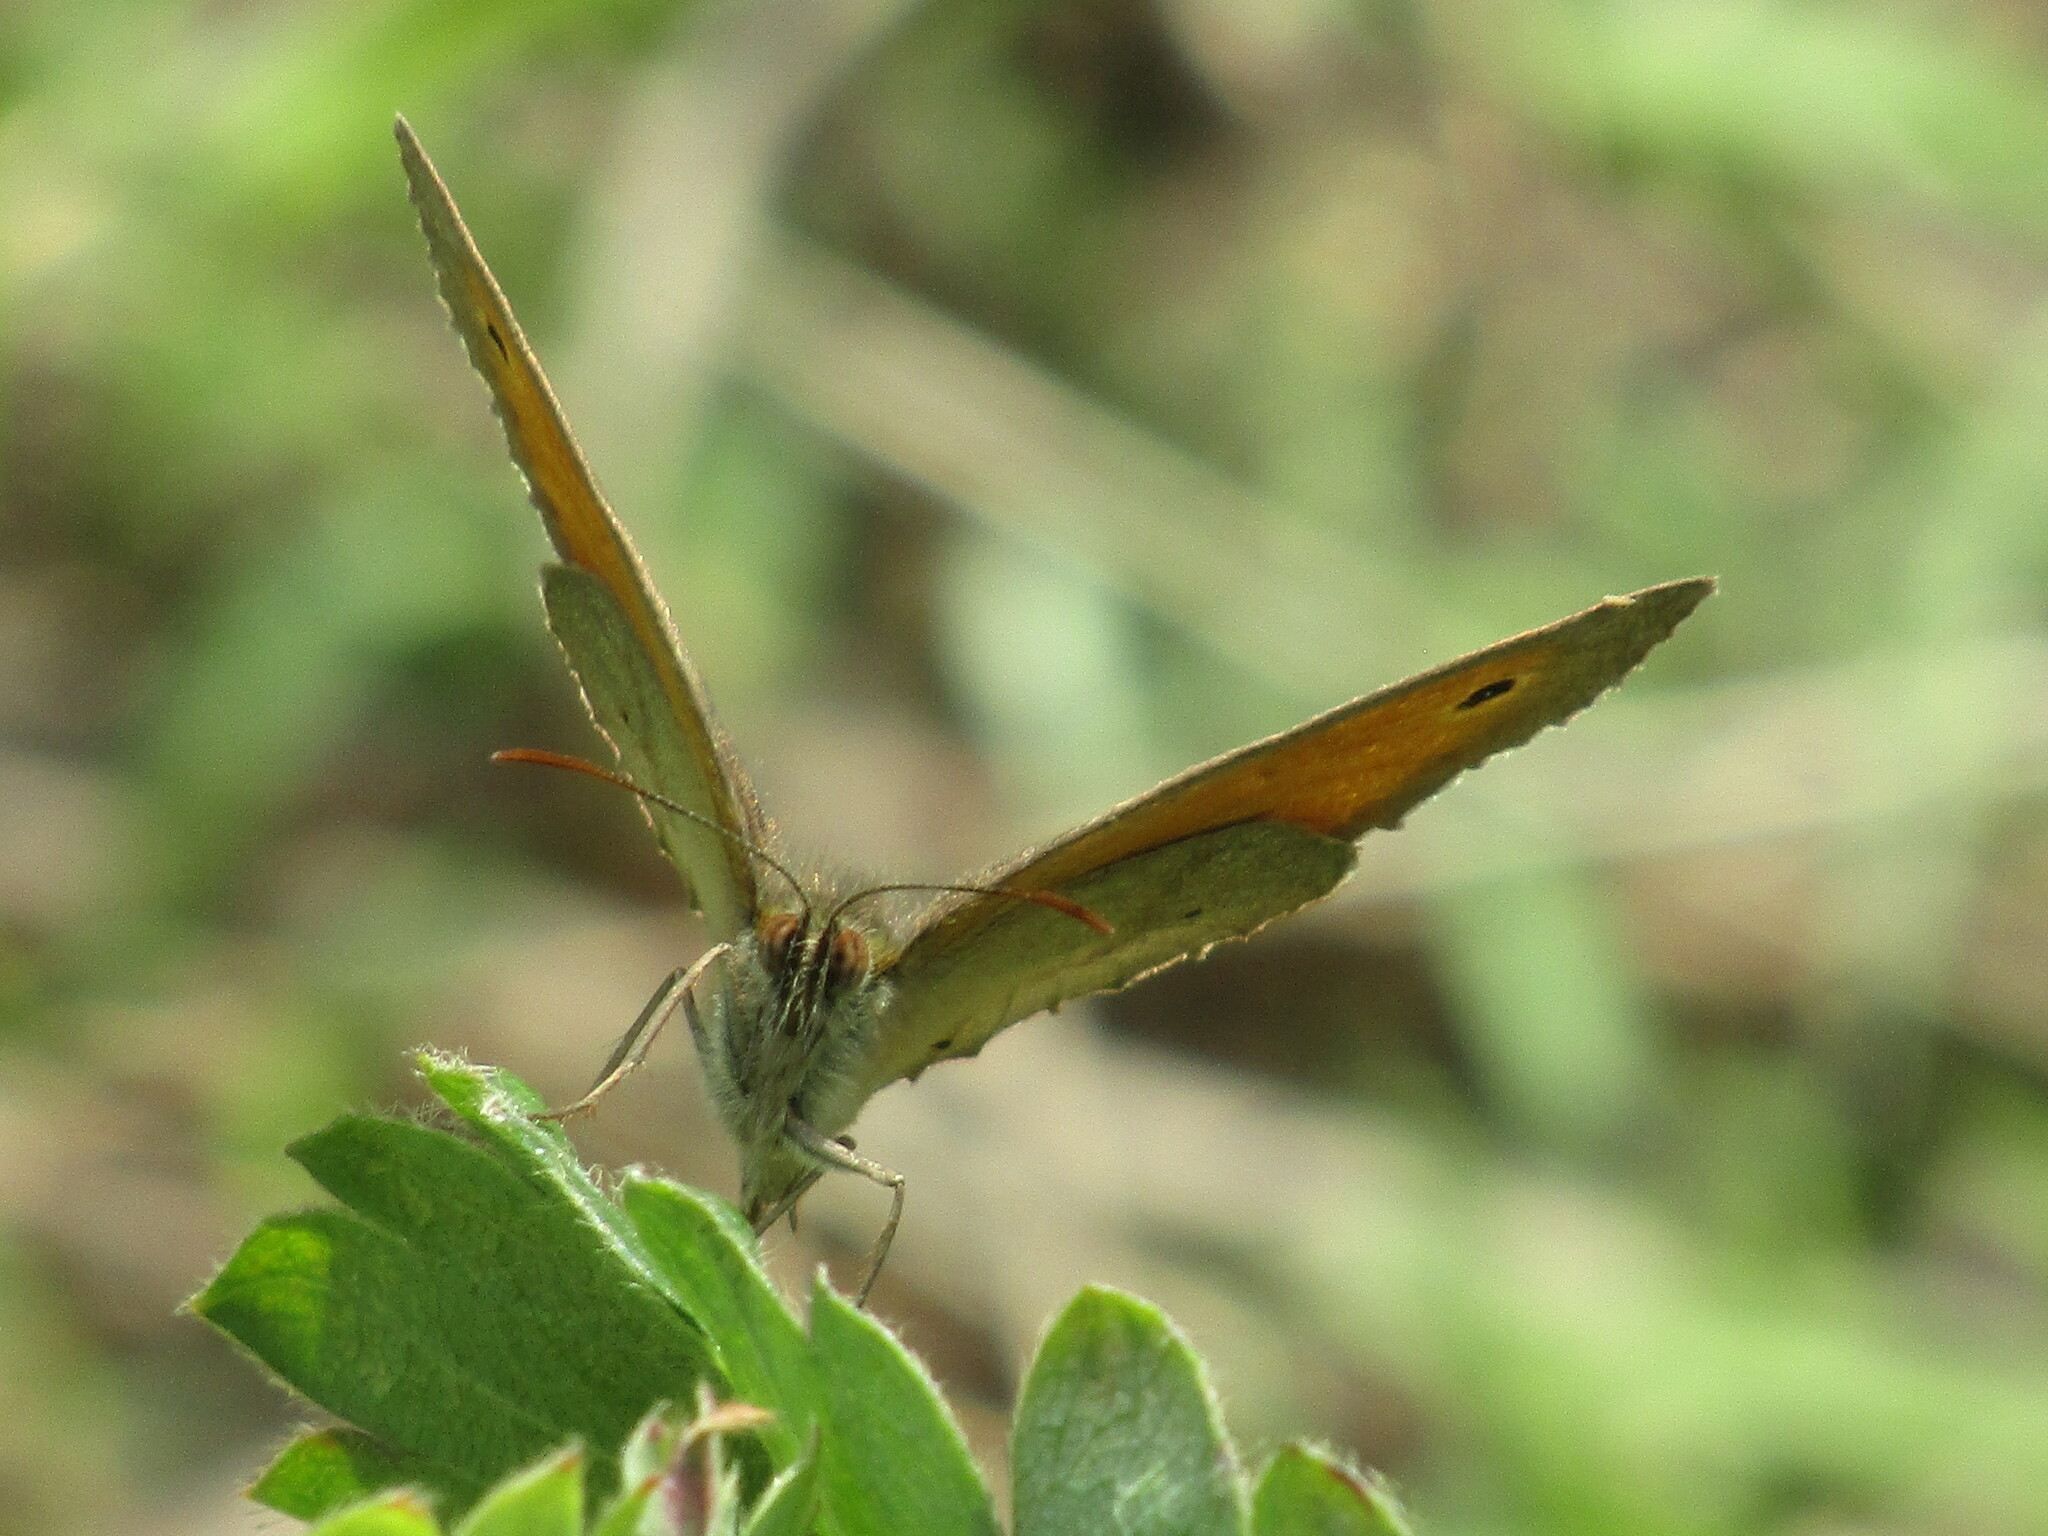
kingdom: Animalia
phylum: Arthropoda
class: Insecta
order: Lepidoptera
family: Nymphalidae
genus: Maniola
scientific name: Maniola jurtina
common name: Meadow brown
